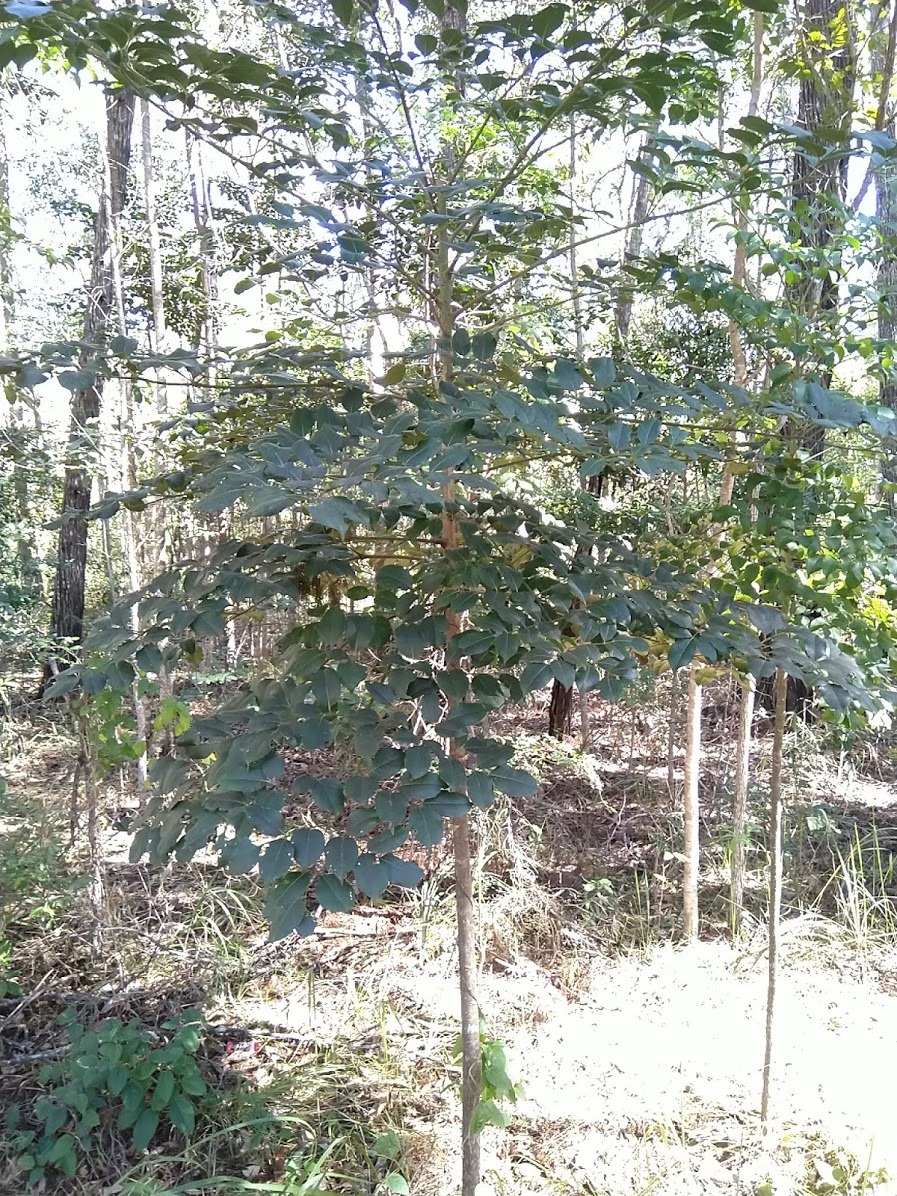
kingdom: Plantae
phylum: Tracheophyta
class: Magnoliopsida
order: Apiales
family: Araliaceae
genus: Polyscias
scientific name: Polyscias elegans
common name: Mowbulan whitewood
